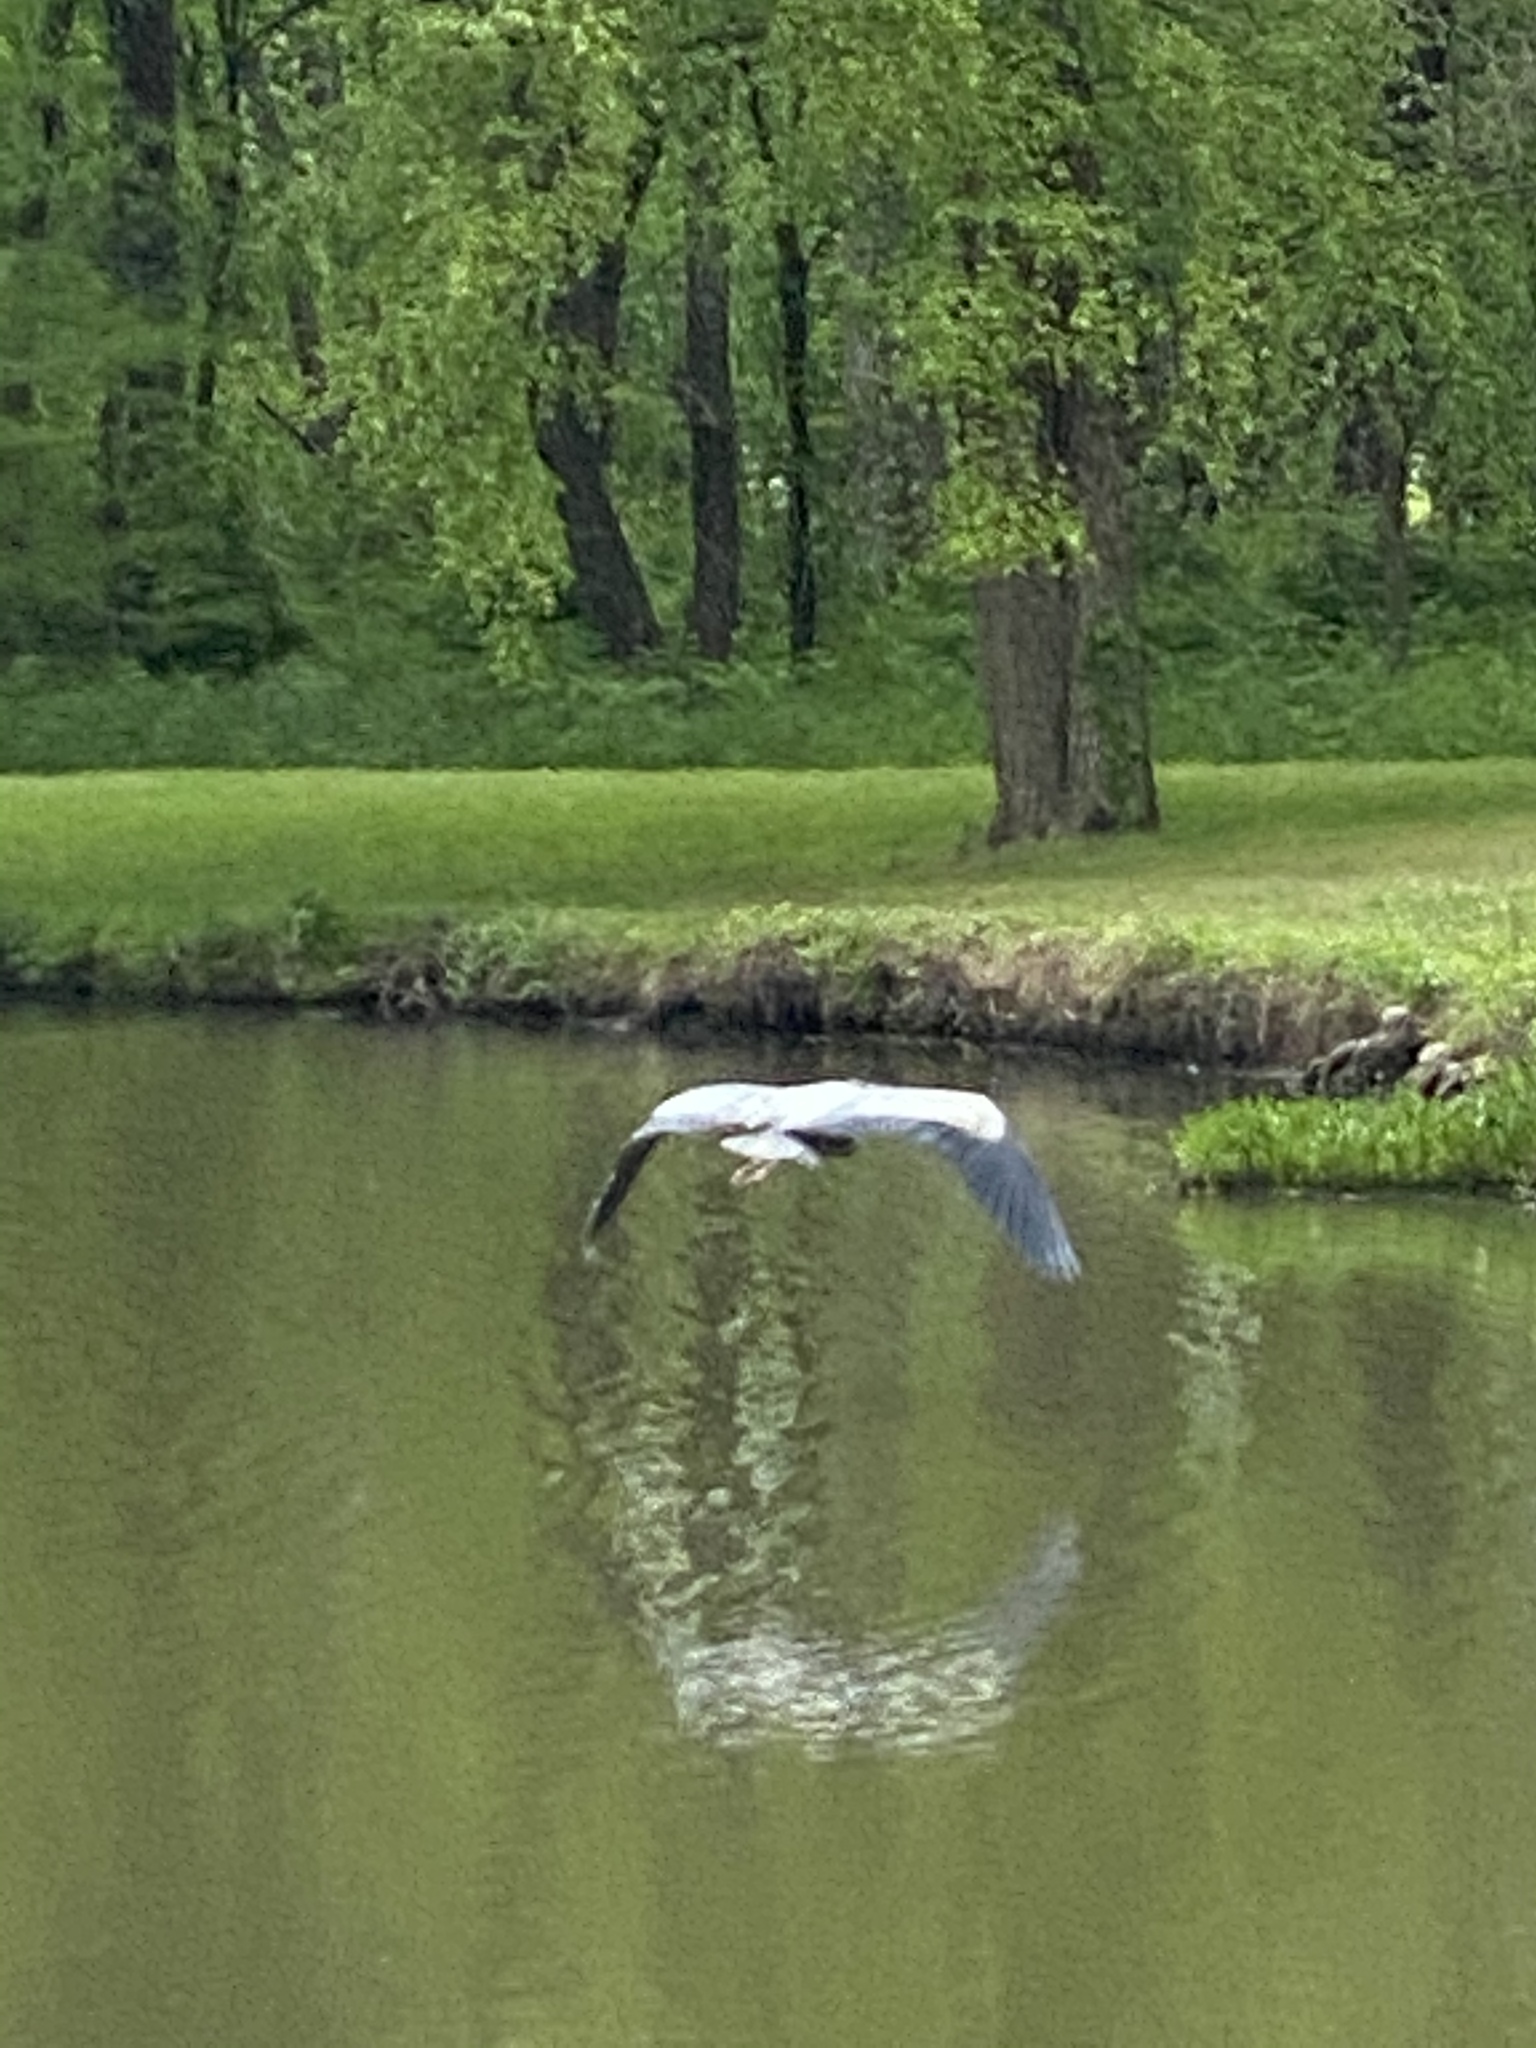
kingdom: Animalia
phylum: Chordata
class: Aves
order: Pelecaniformes
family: Ardeidae
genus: Ardea
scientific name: Ardea herodias
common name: Great blue heron
